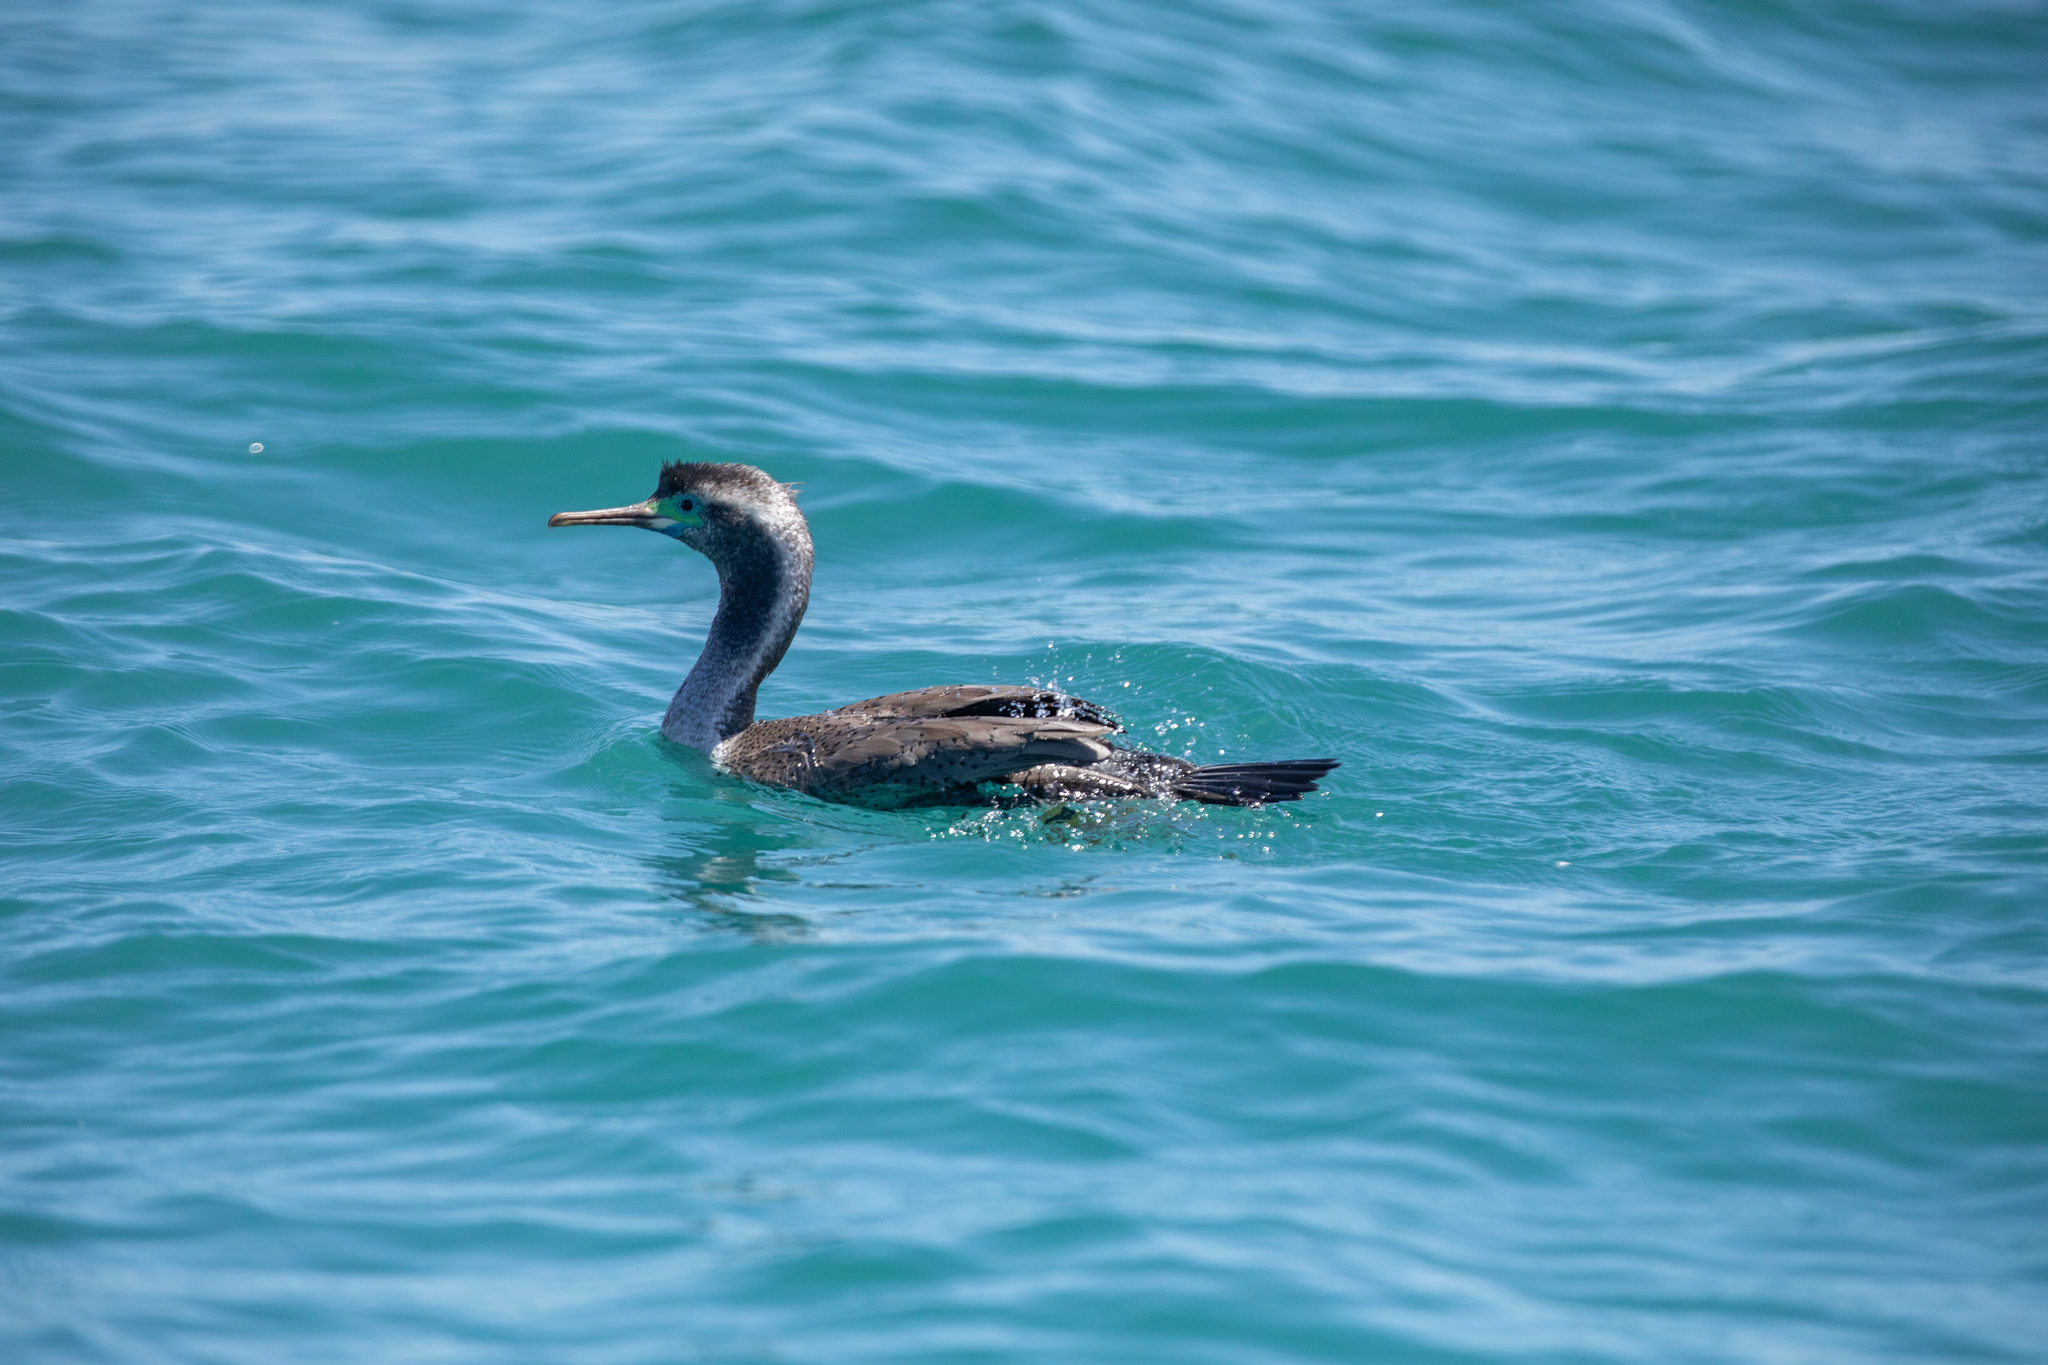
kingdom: Animalia
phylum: Chordata
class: Aves
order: Suliformes
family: Phalacrocoracidae
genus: Phalacrocorax
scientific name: Phalacrocorax punctatus
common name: Spotted shag
